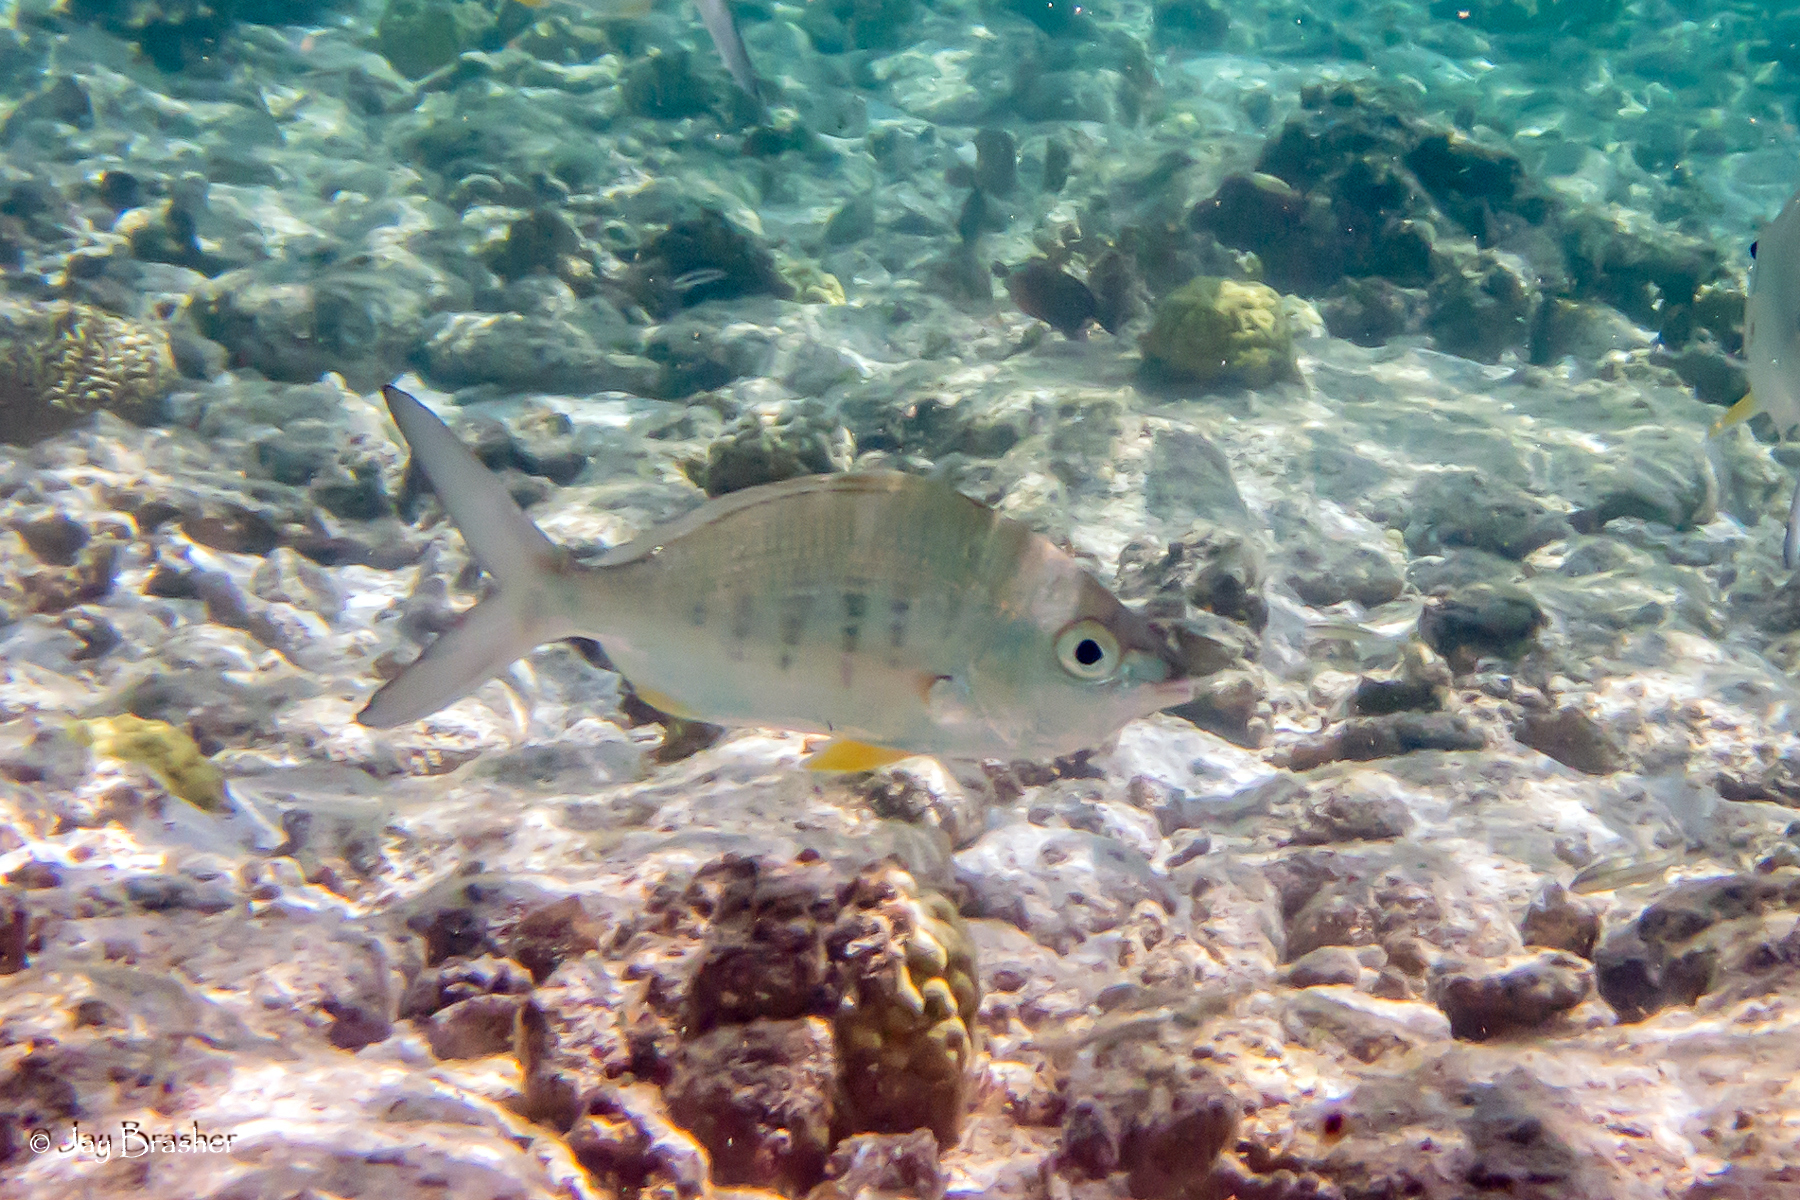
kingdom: Animalia
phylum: Chordata
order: Perciformes
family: Gerreidae
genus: Gerres
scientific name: Gerres cinereus
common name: Hedow
